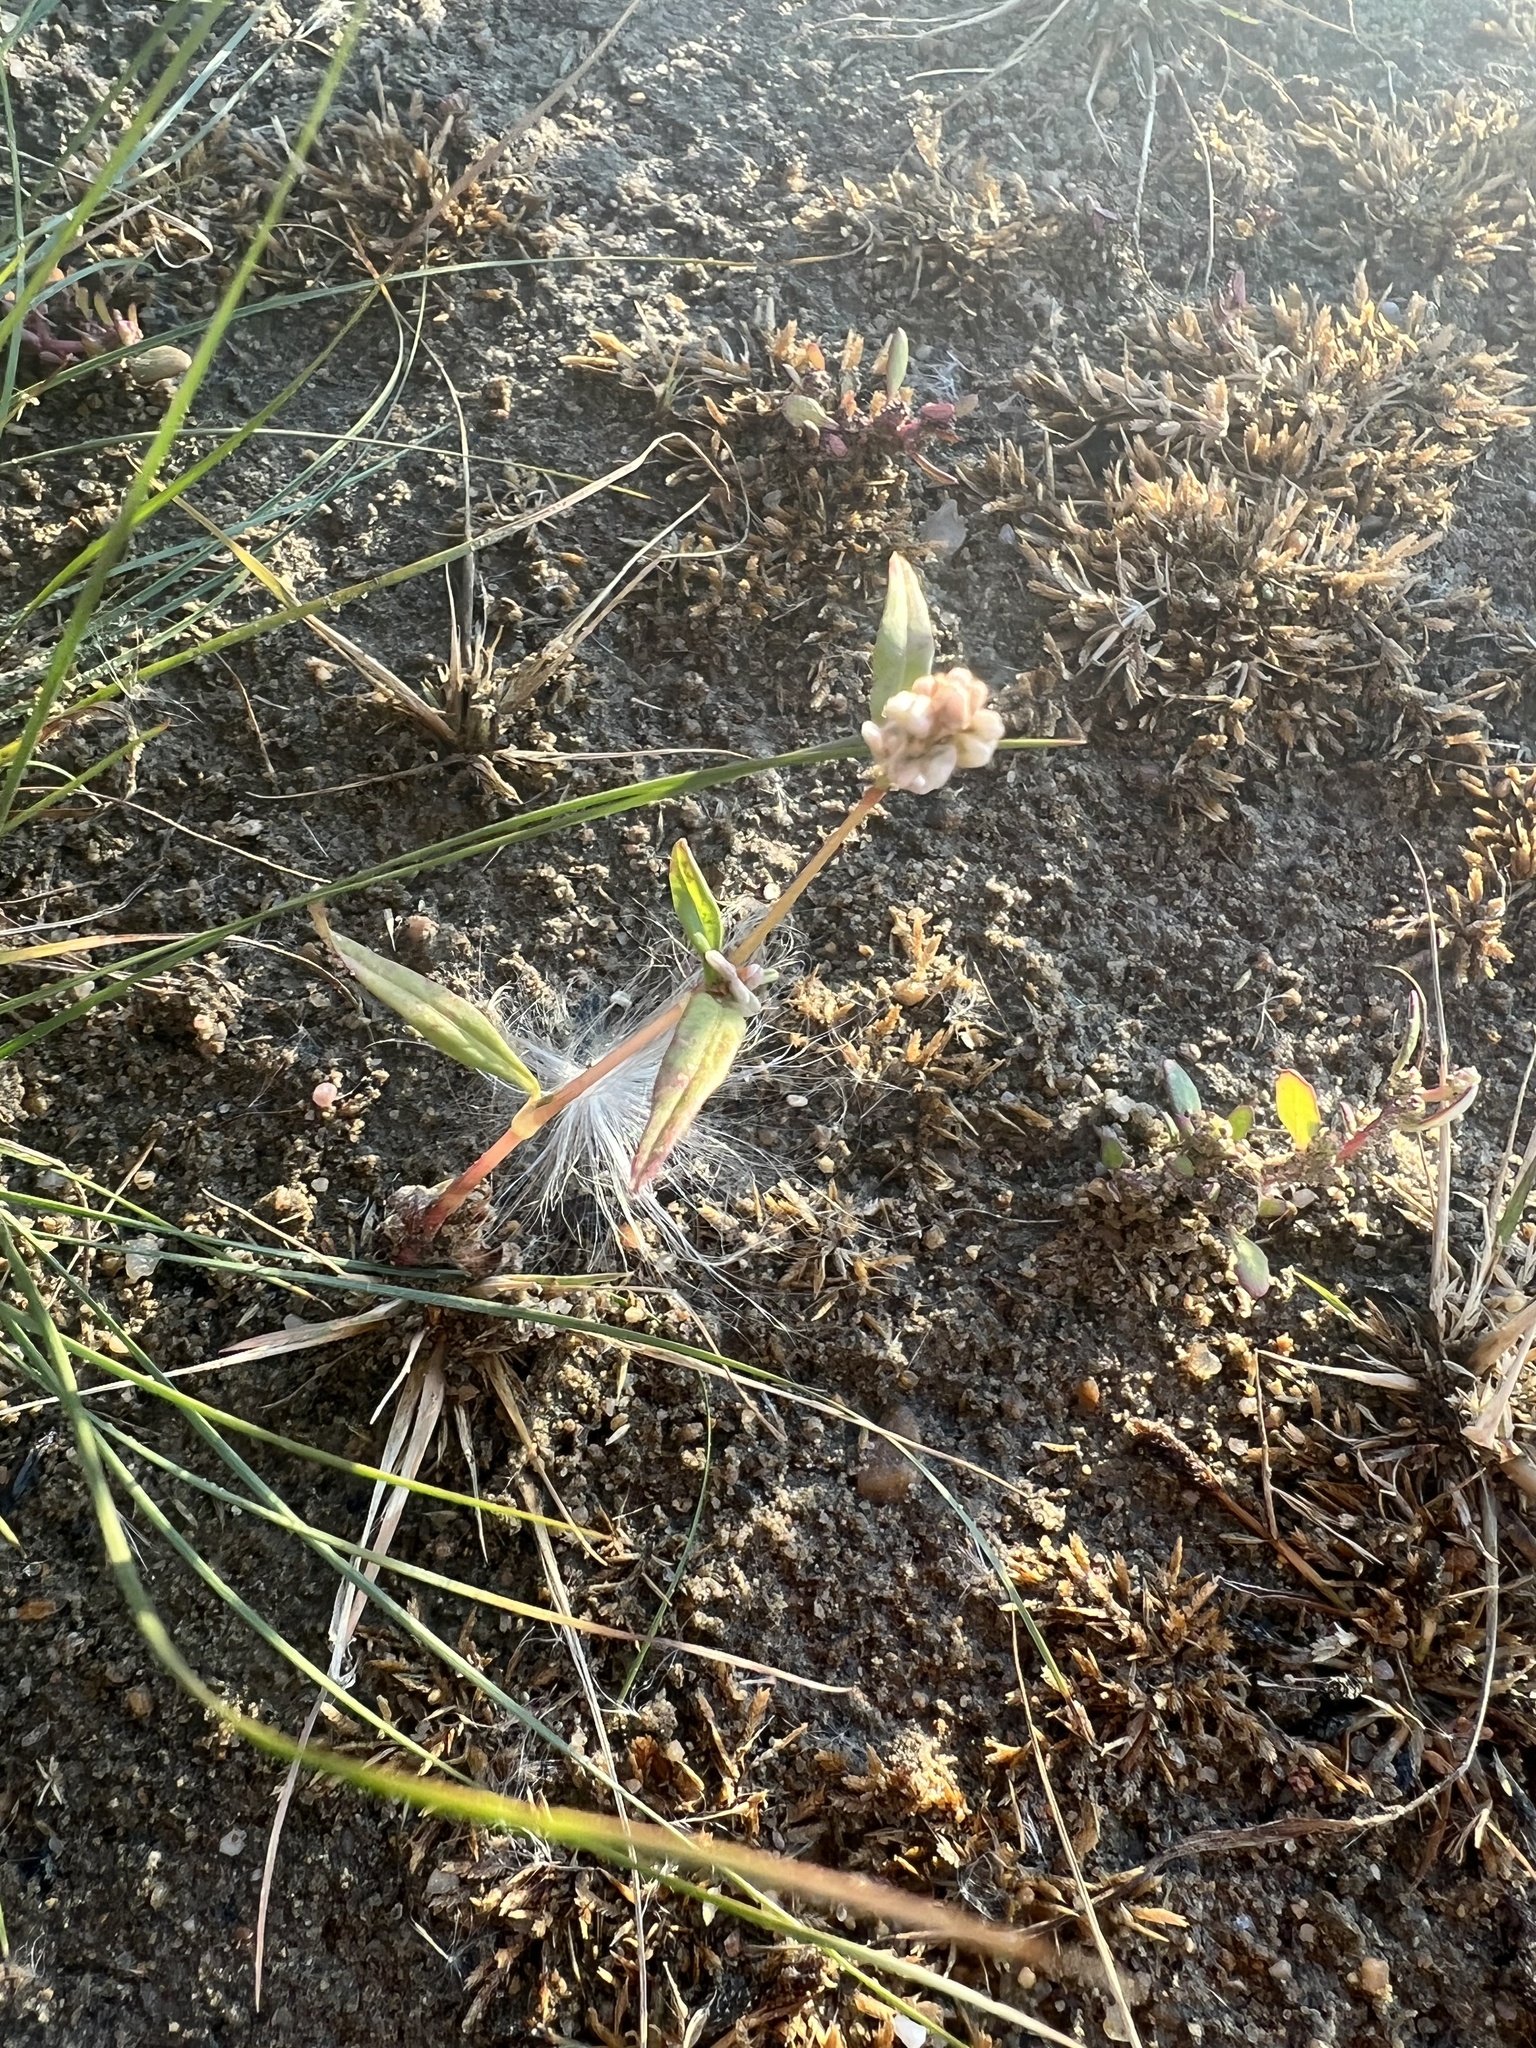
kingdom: Plantae
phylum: Tracheophyta
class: Magnoliopsida
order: Caryophyllales
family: Polygonaceae
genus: Persicaria
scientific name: Persicaria lapathifolia
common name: Curlytop knotweed
